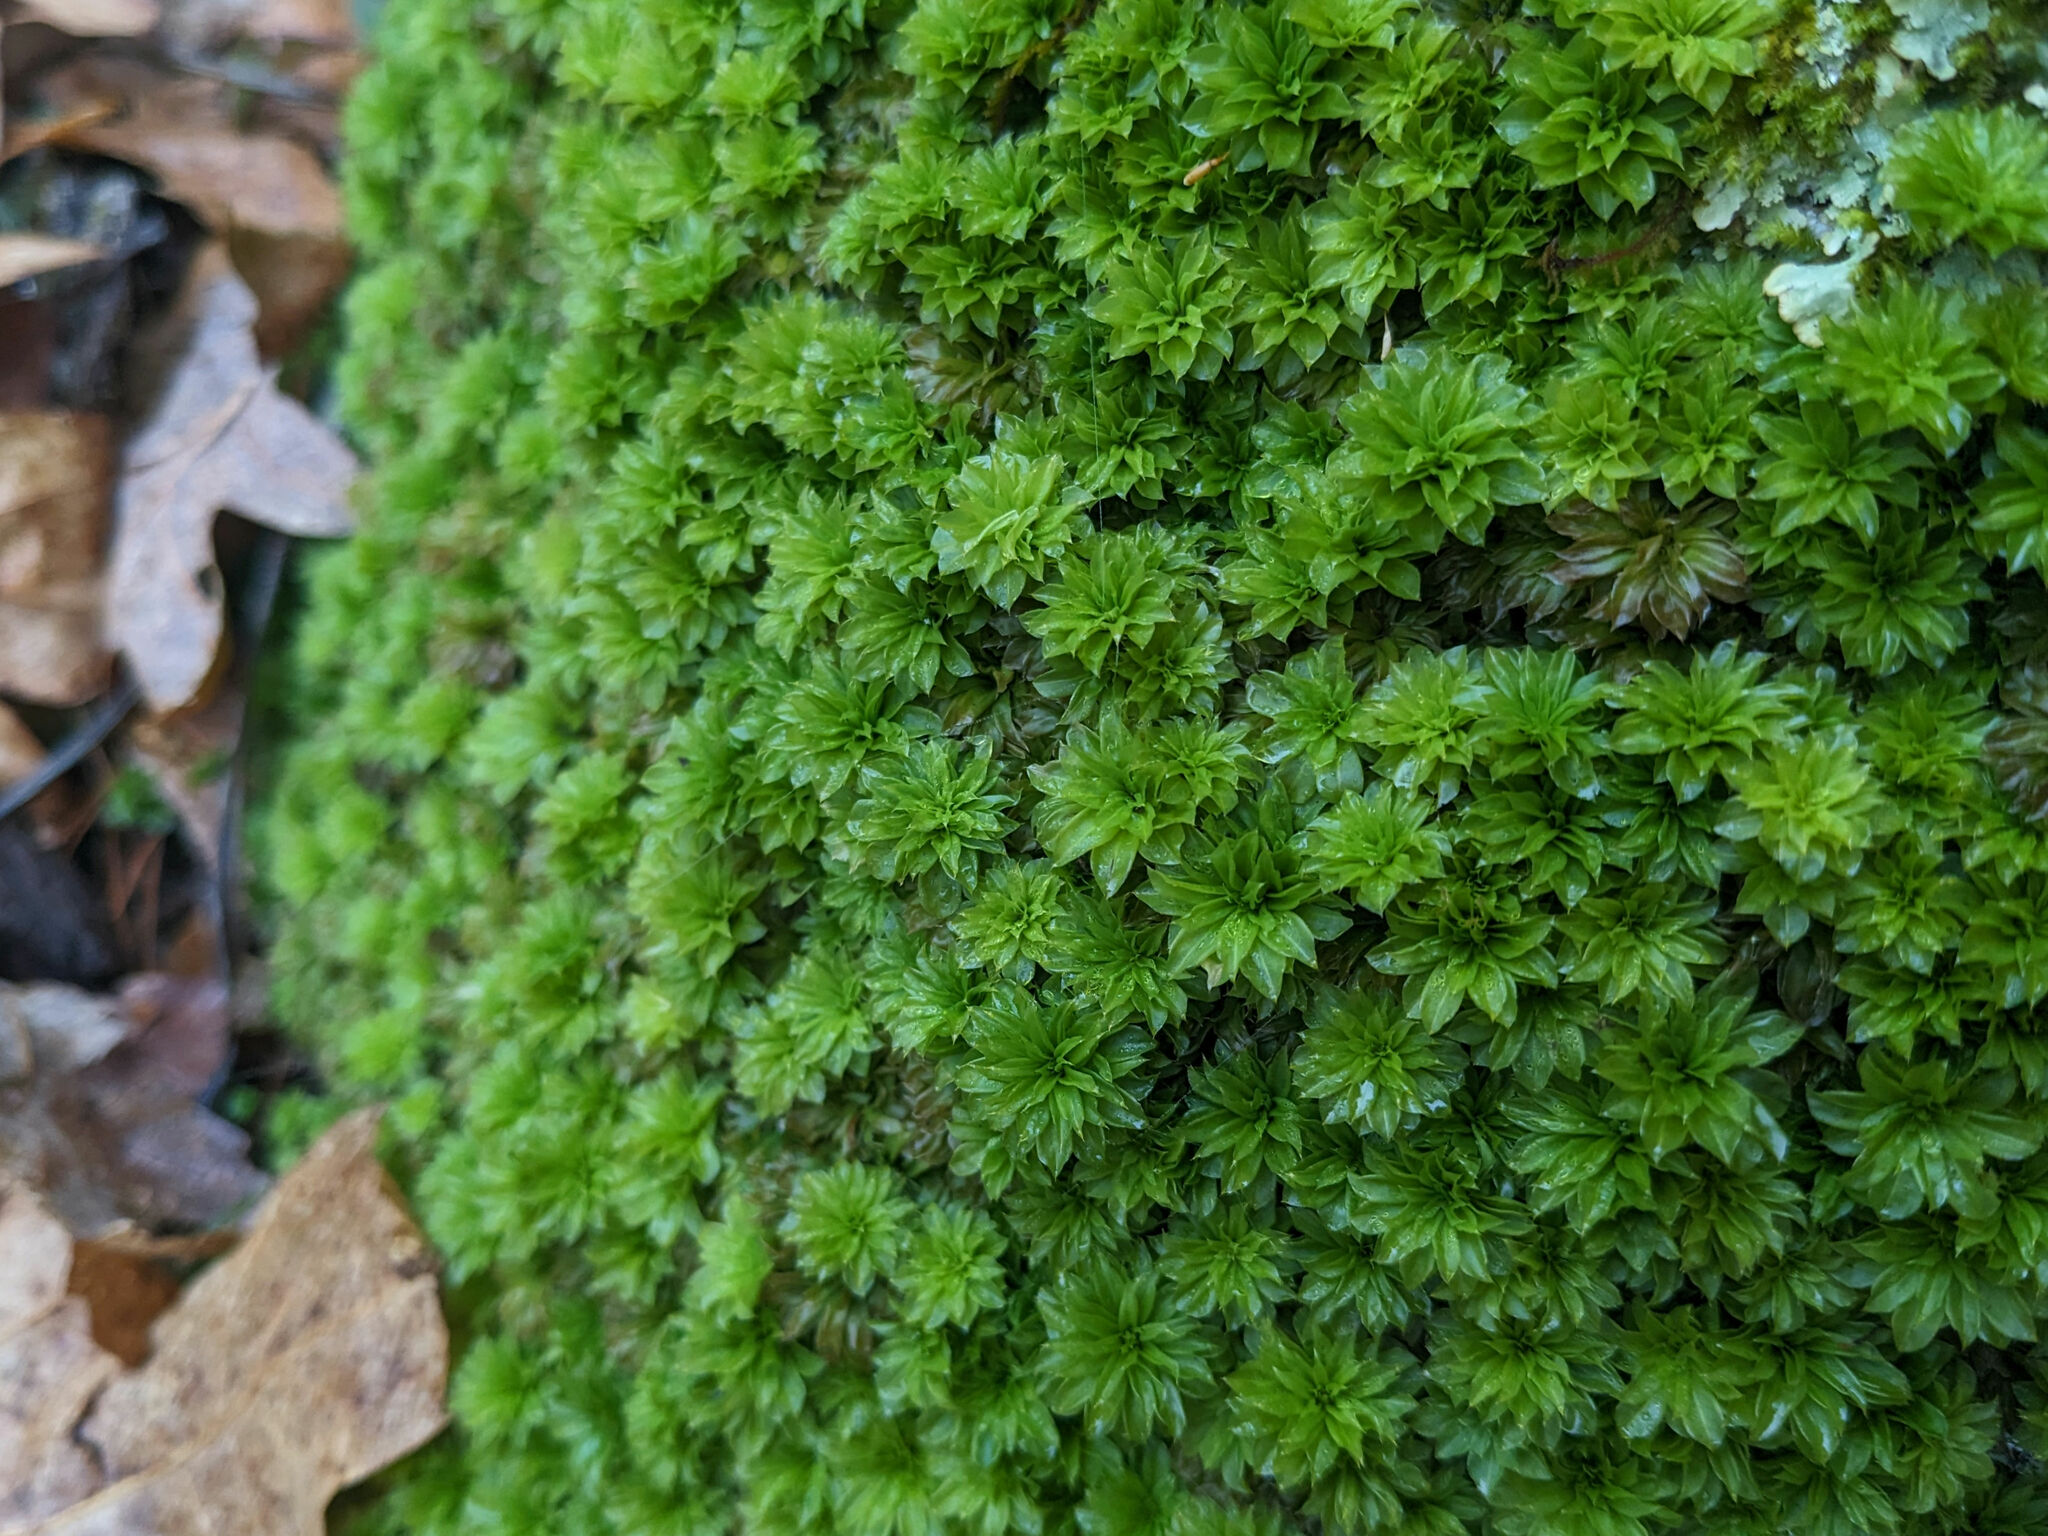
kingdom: Plantae
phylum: Bryophyta
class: Bryopsida
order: Bryales
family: Bryaceae
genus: Rhodobryum
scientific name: Rhodobryum ontariense
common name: Ontario rhodobryum moss
